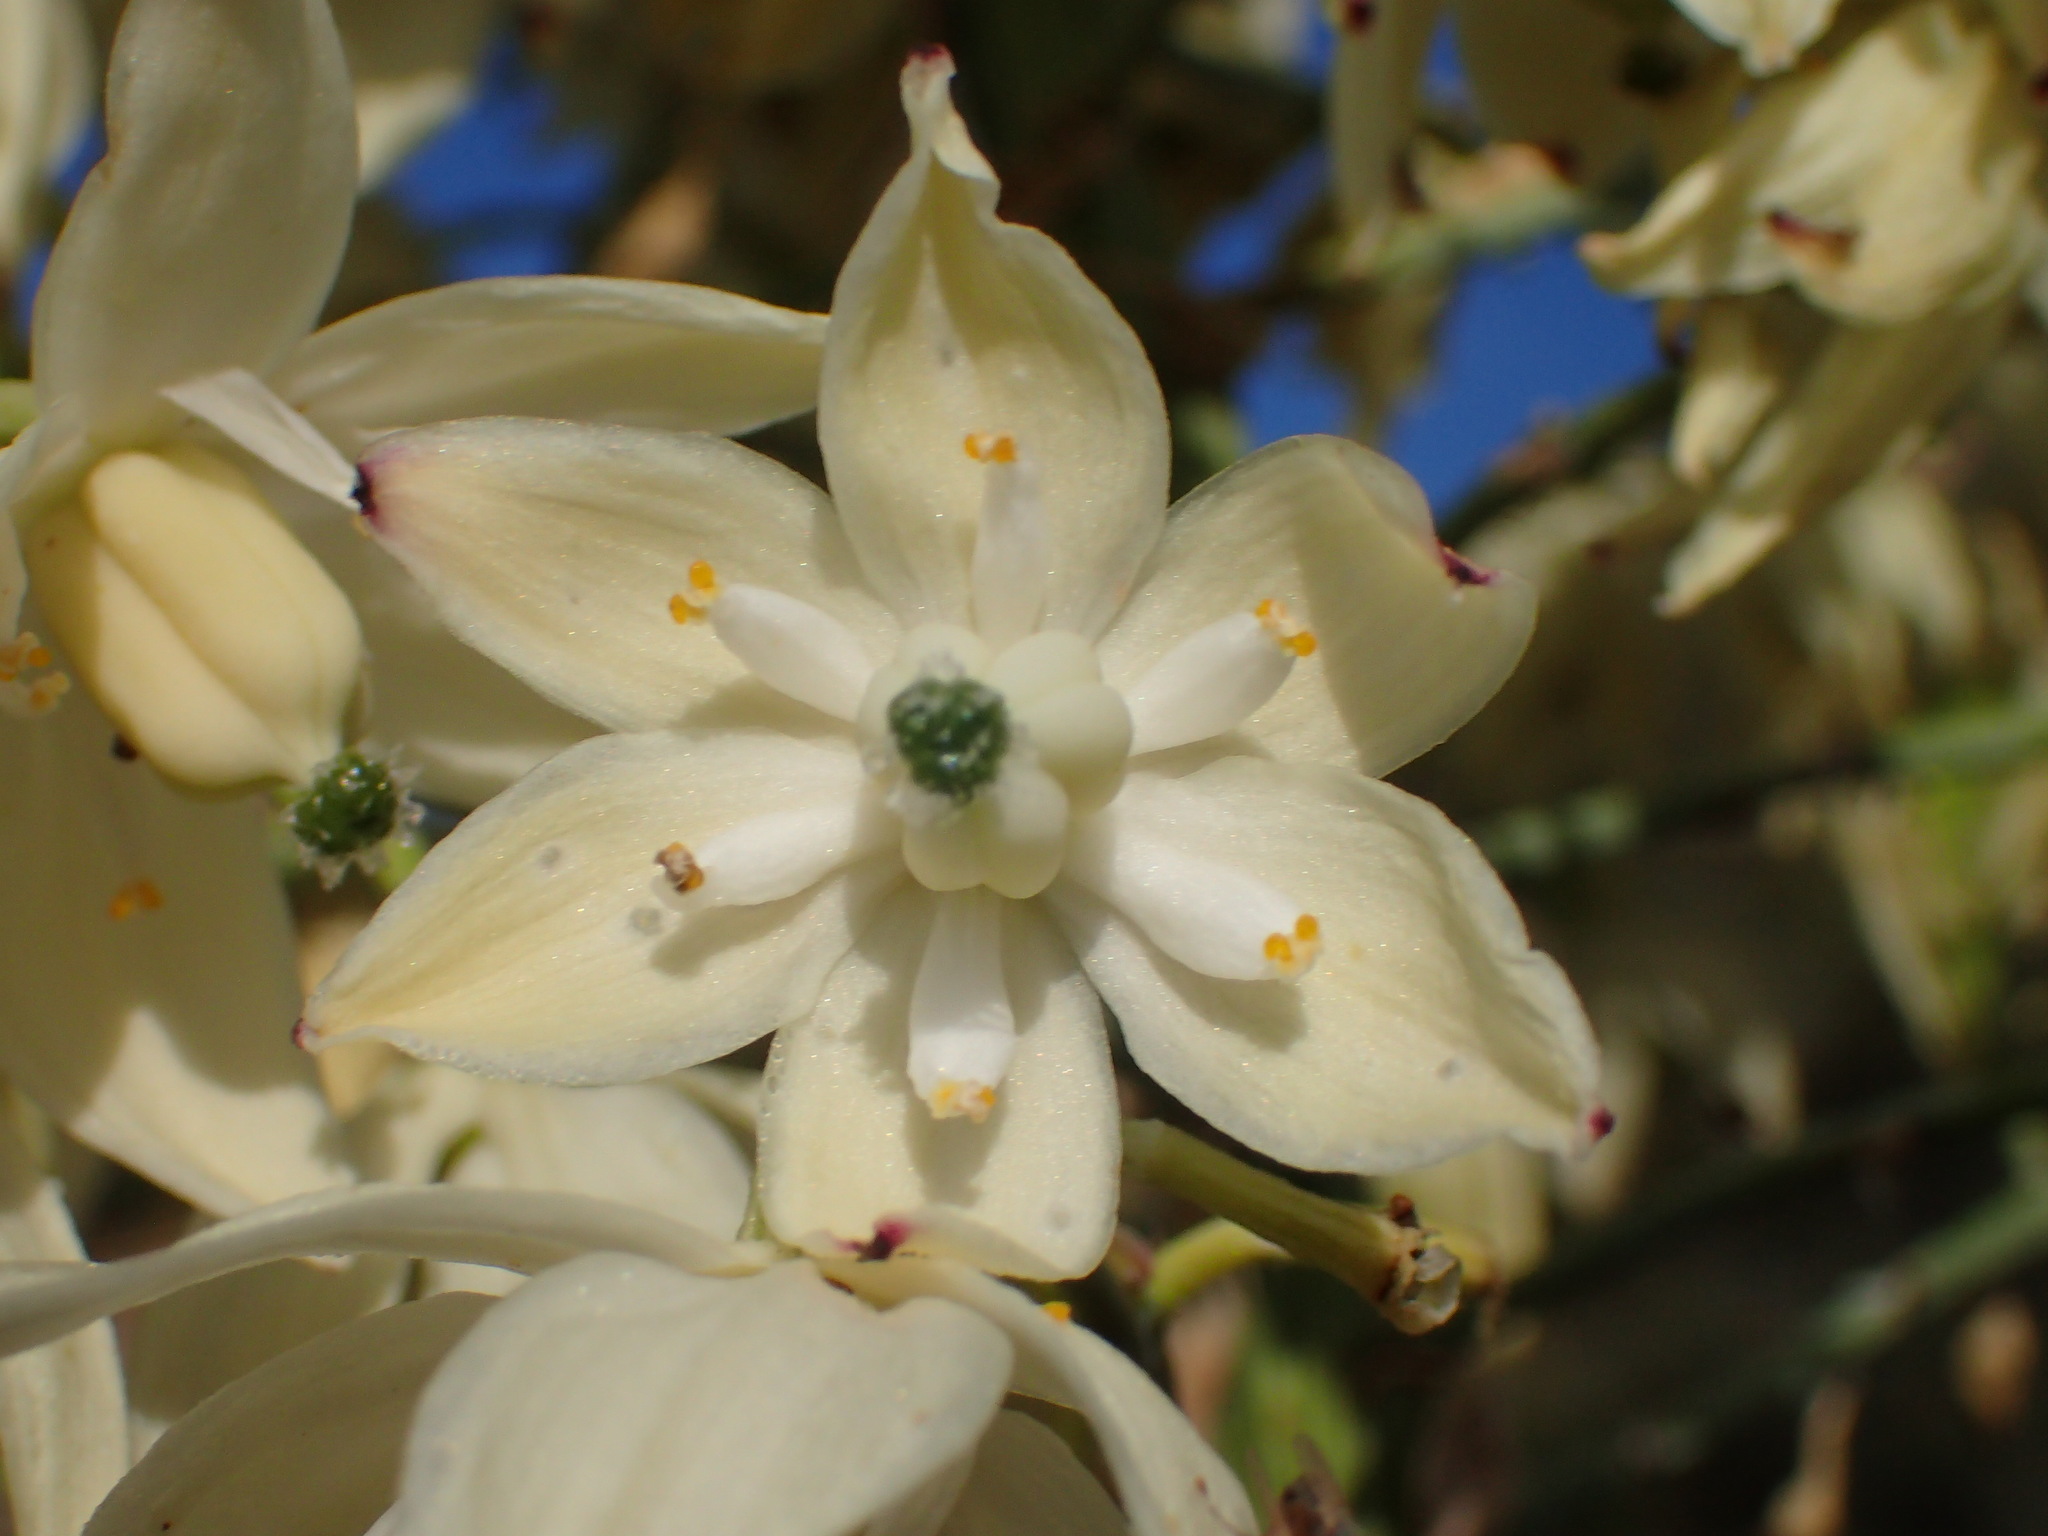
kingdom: Plantae
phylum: Tracheophyta
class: Liliopsida
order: Asparagales
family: Asparagaceae
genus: Hesperoyucca
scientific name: Hesperoyucca whipplei
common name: Our lord's-candle
